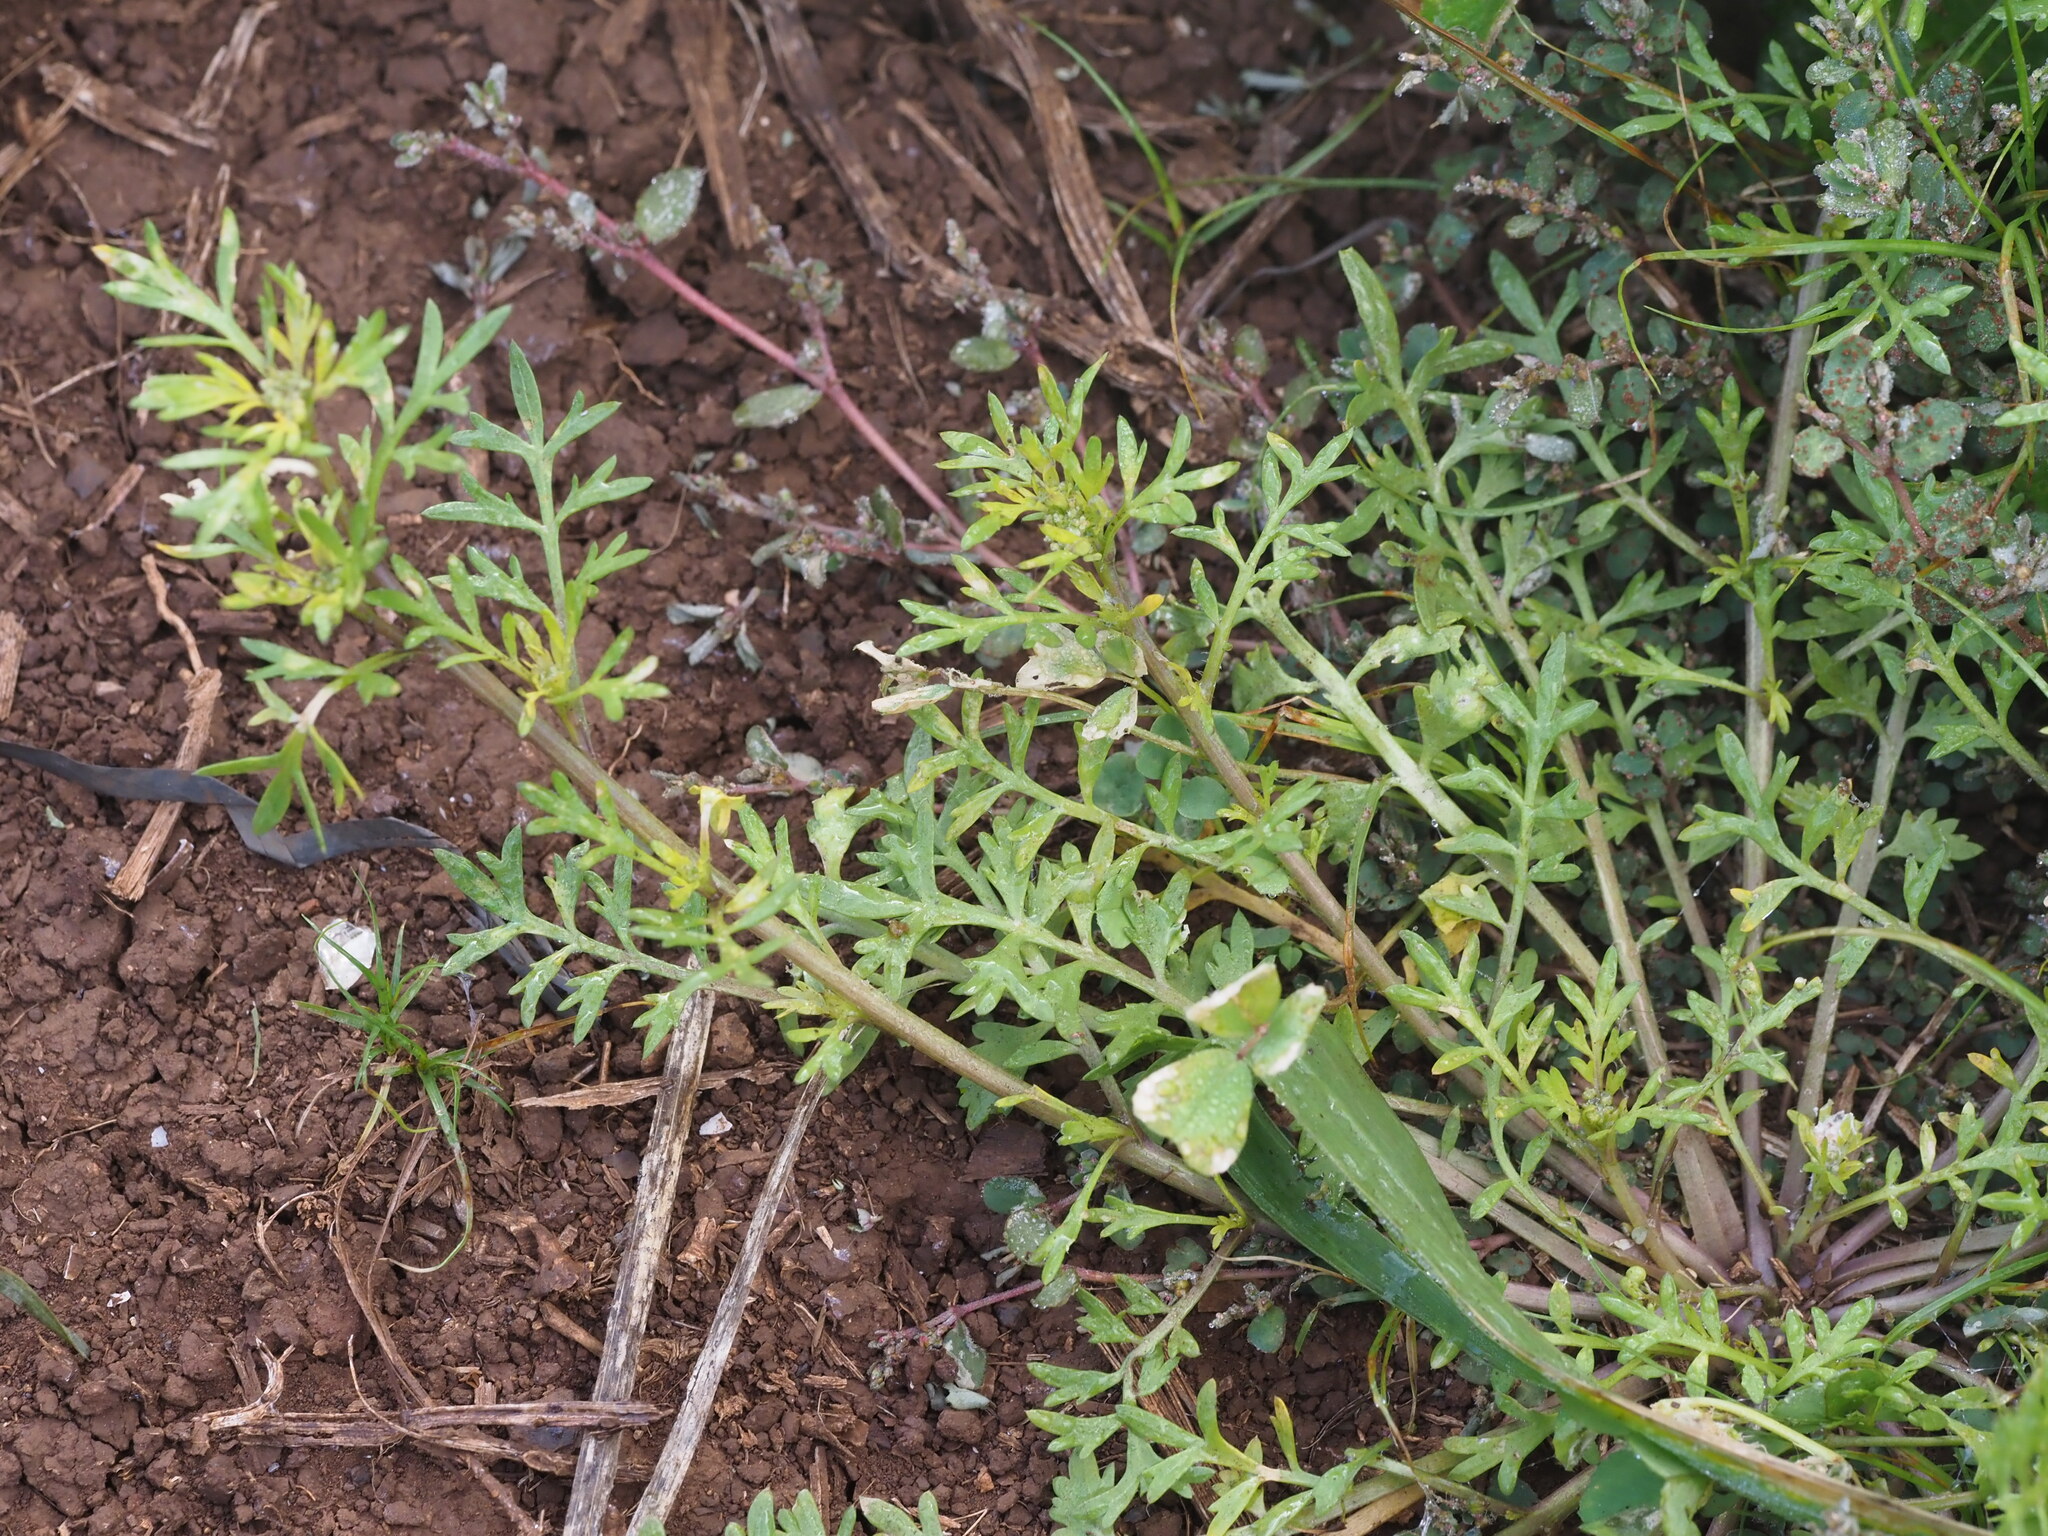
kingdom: Plantae
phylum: Tracheophyta
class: Magnoliopsida
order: Brassicales
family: Brassicaceae
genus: Lepidium
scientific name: Lepidium didymum
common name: Lesser swinecress
